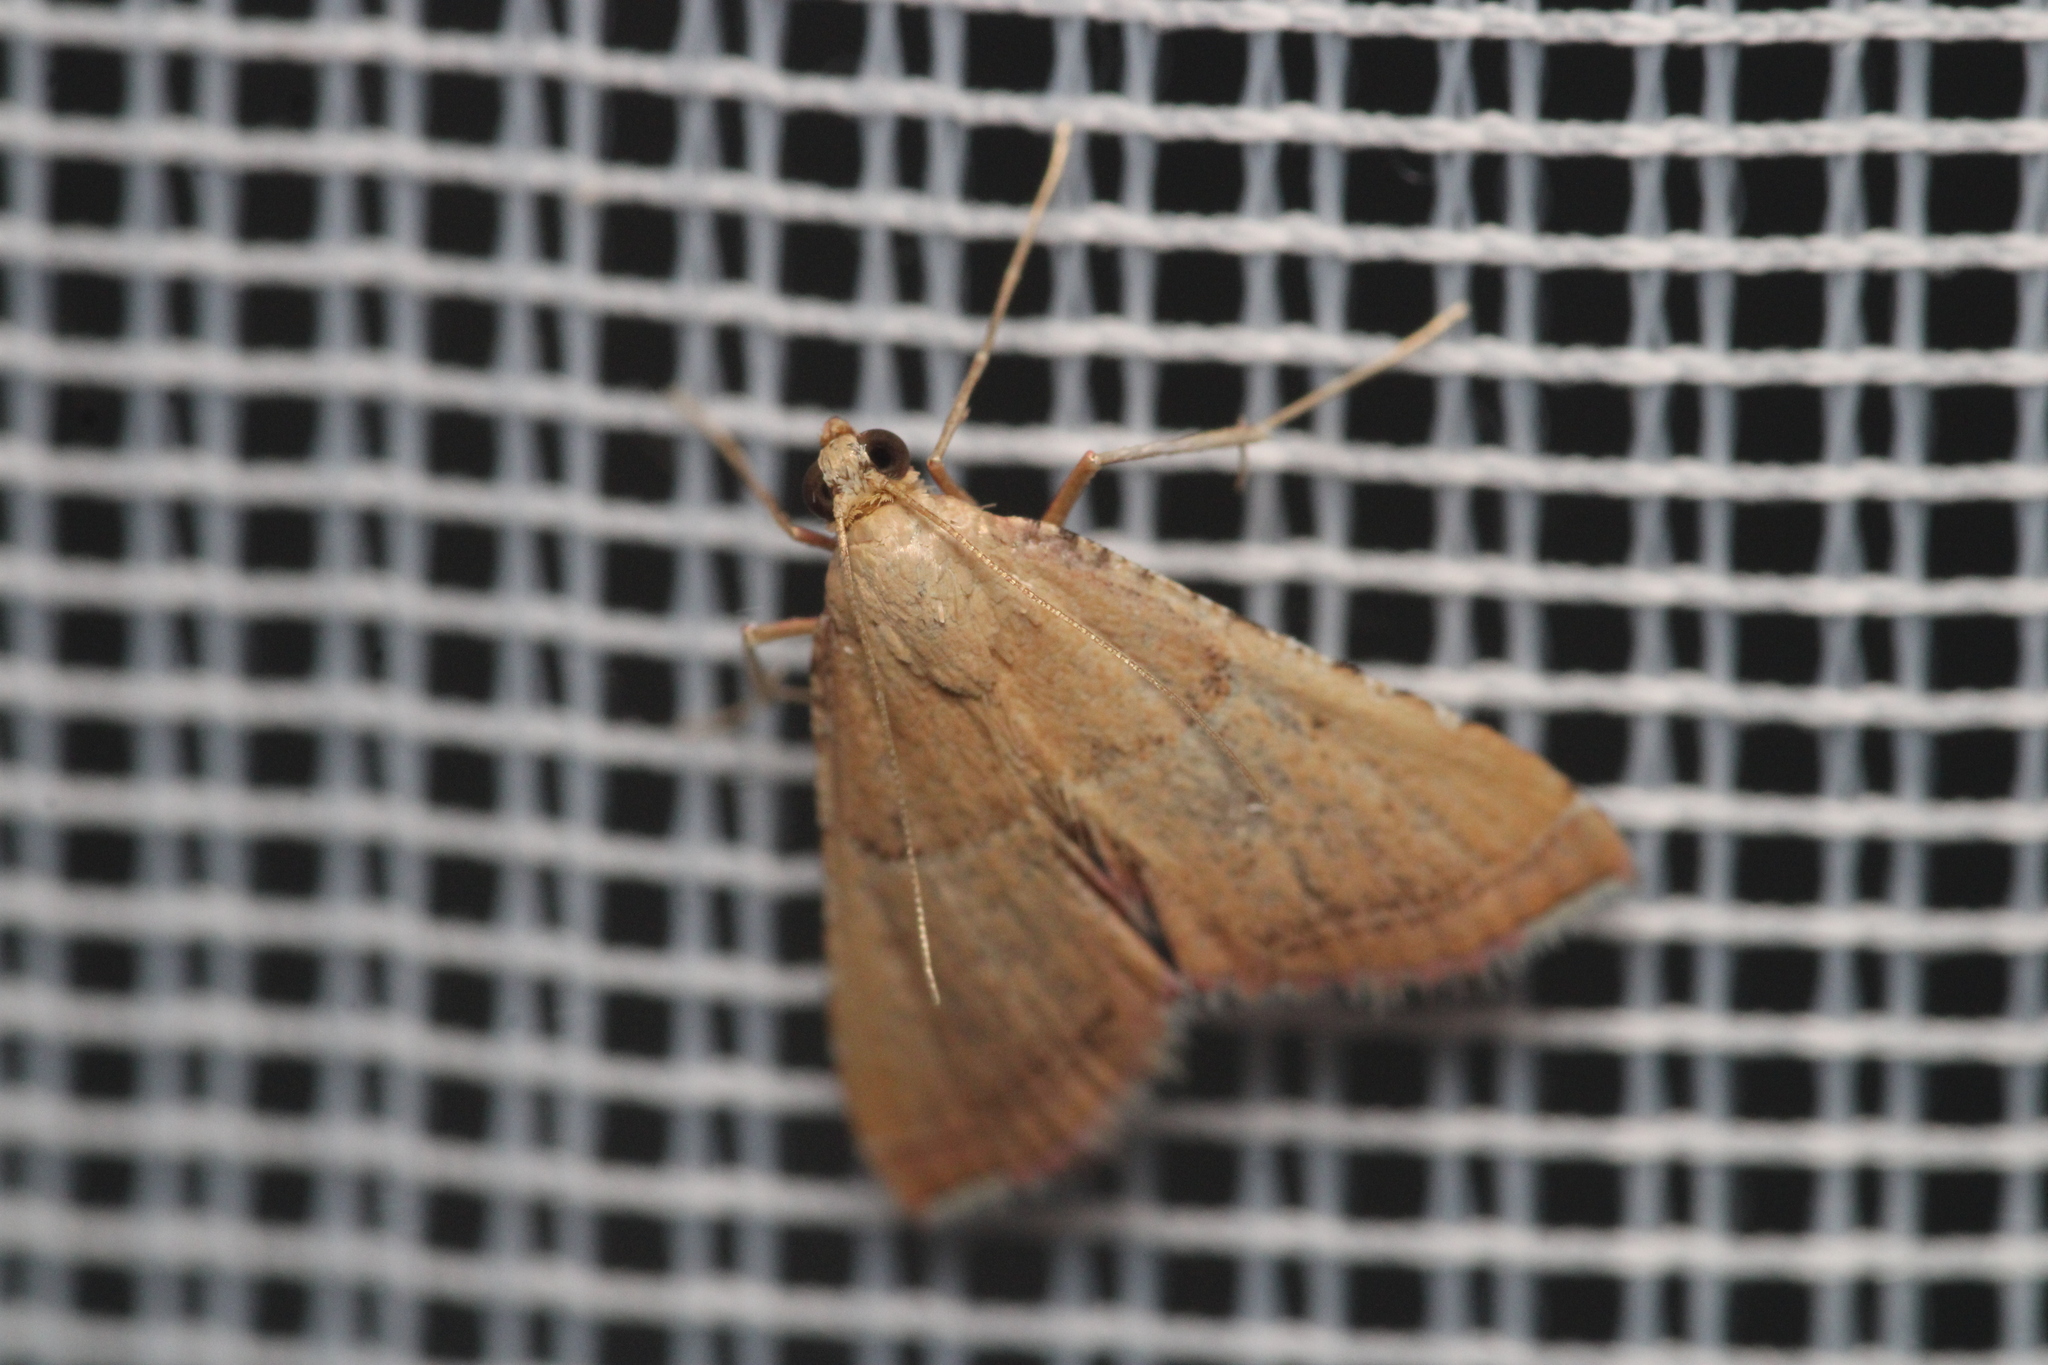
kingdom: Animalia
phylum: Arthropoda
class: Insecta
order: Lepidoptera
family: Pyralidae
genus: Endotricha
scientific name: Endotricha flammealis
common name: Rosy tabby
